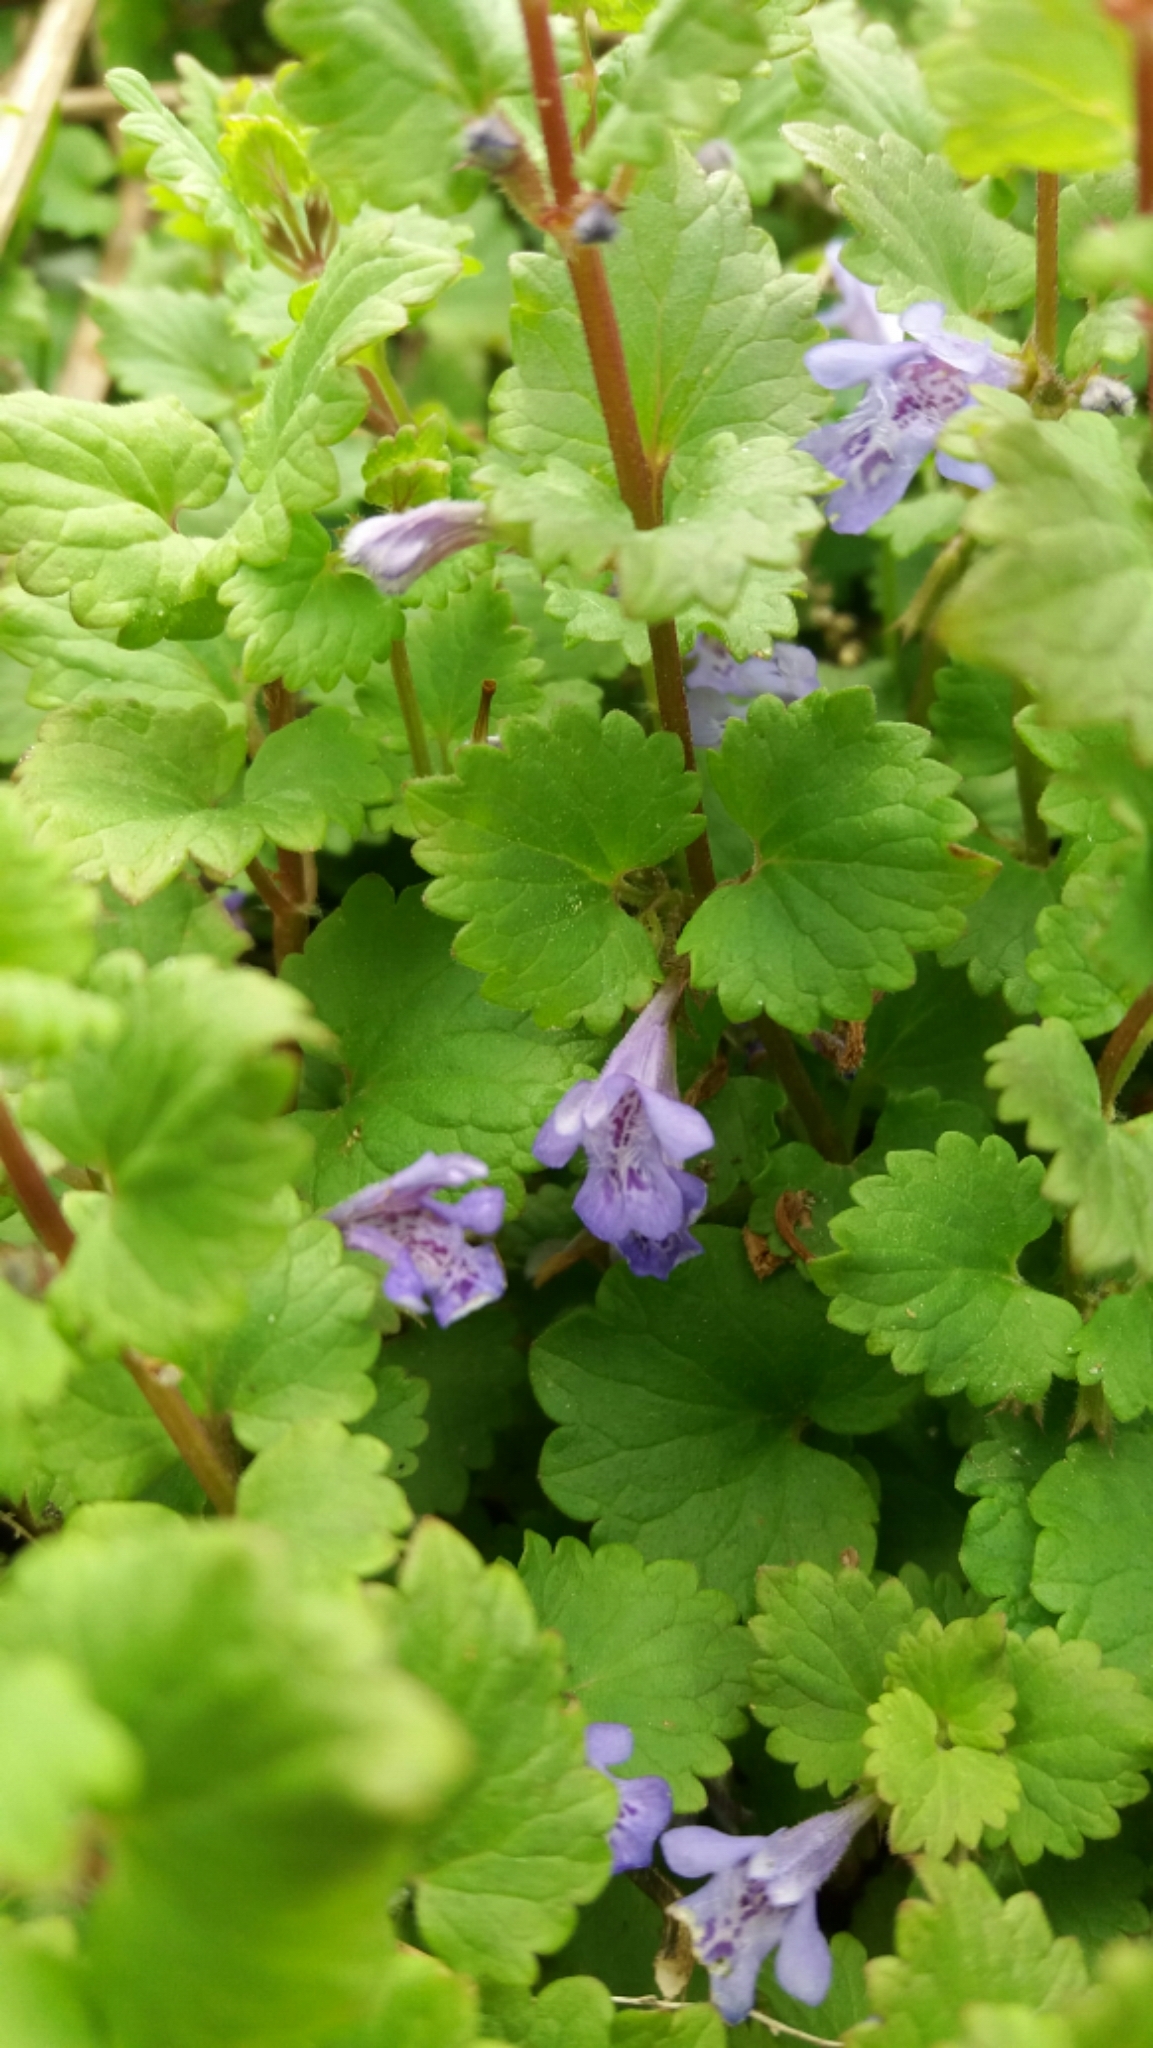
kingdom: Plantae
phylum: Tracheophyta
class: Magnoliopsida
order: Lamiales
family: Lamiaceae
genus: Glechoma
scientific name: Glechoma hederacea
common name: Ground ivy
